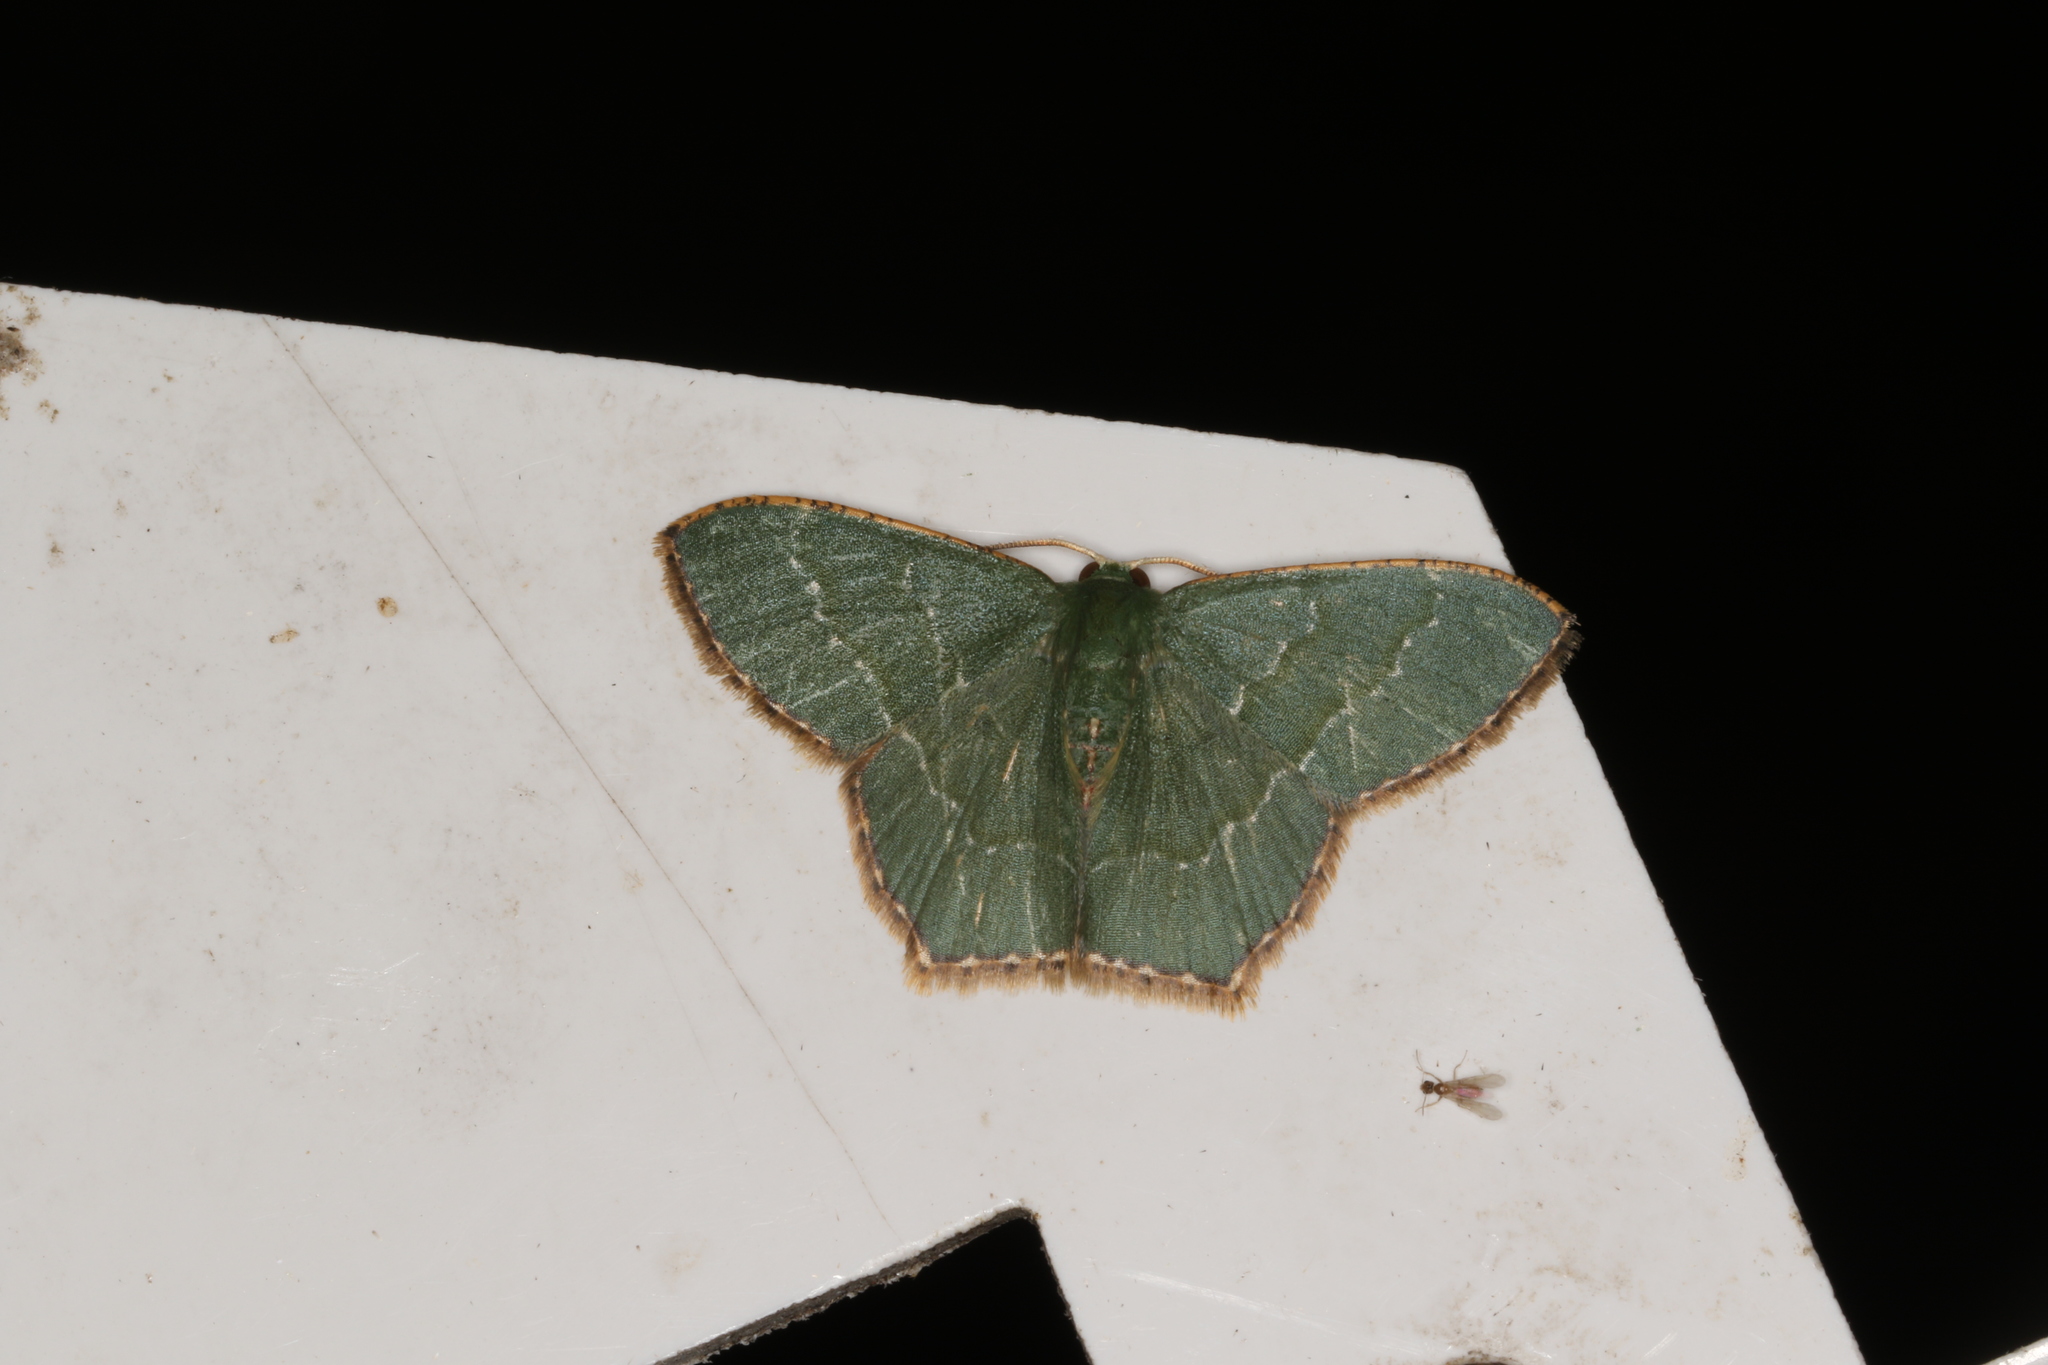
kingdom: Animalia
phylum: Arthropoda
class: Insecta
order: Lepidoptera
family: Geometridae
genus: Hemithea
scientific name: Hemithea wuka
